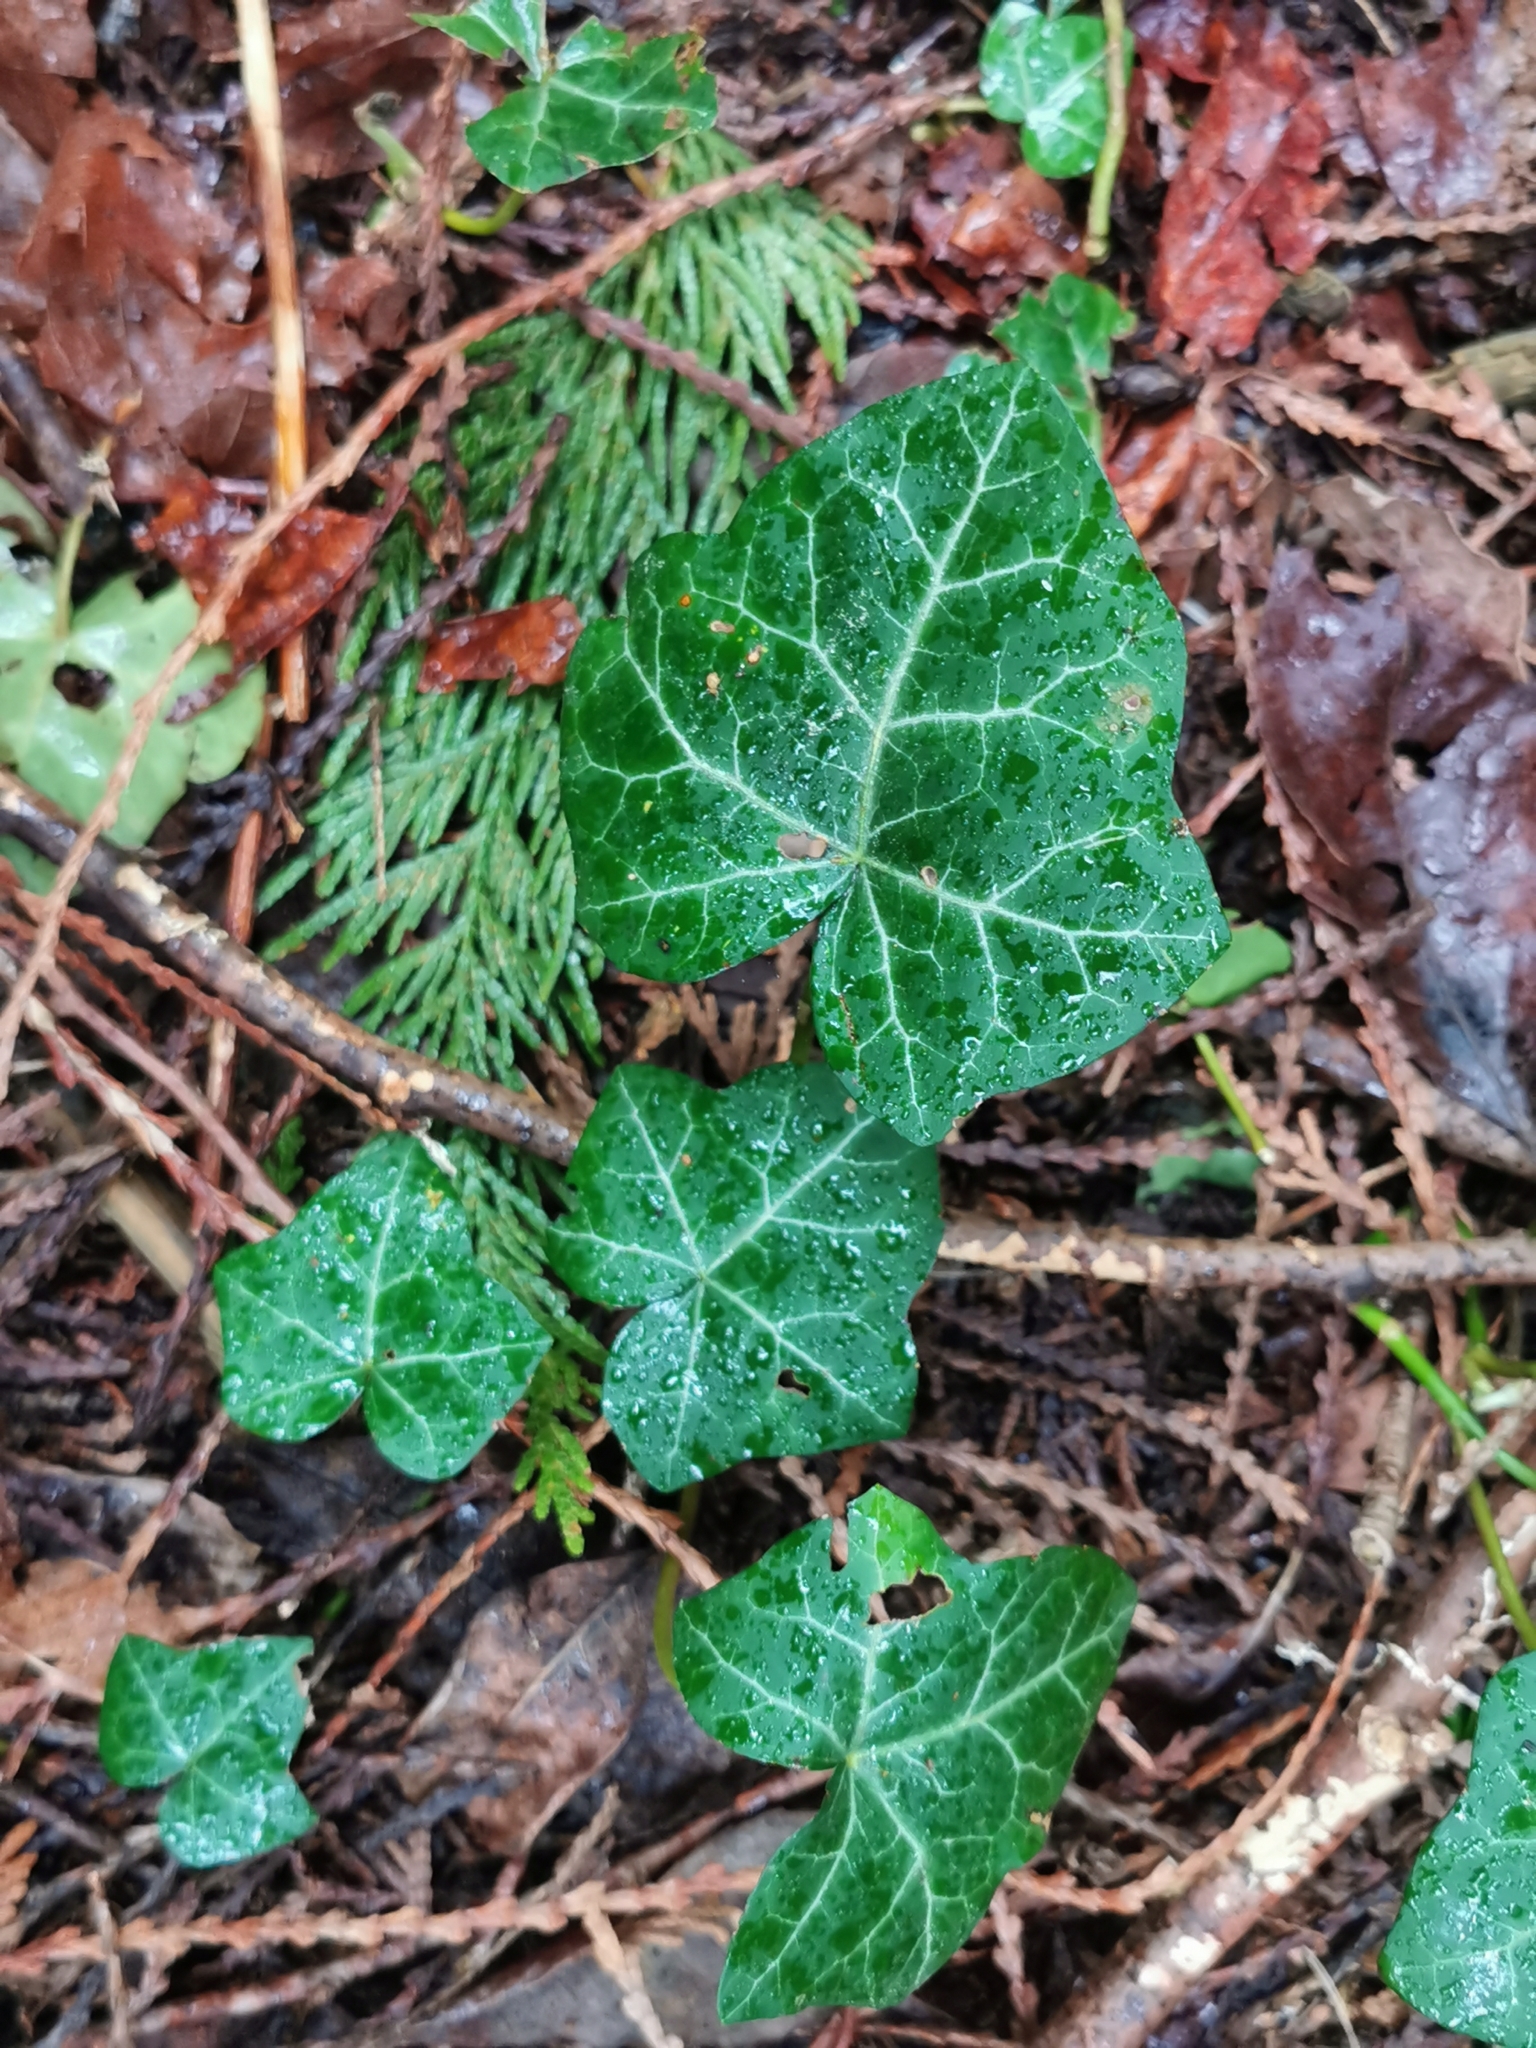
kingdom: Plantae
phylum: Tracheophyta
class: Magnoliopsida
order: Apiales
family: Araliaceae
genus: Hedera
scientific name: Hedera helix
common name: Ivy
